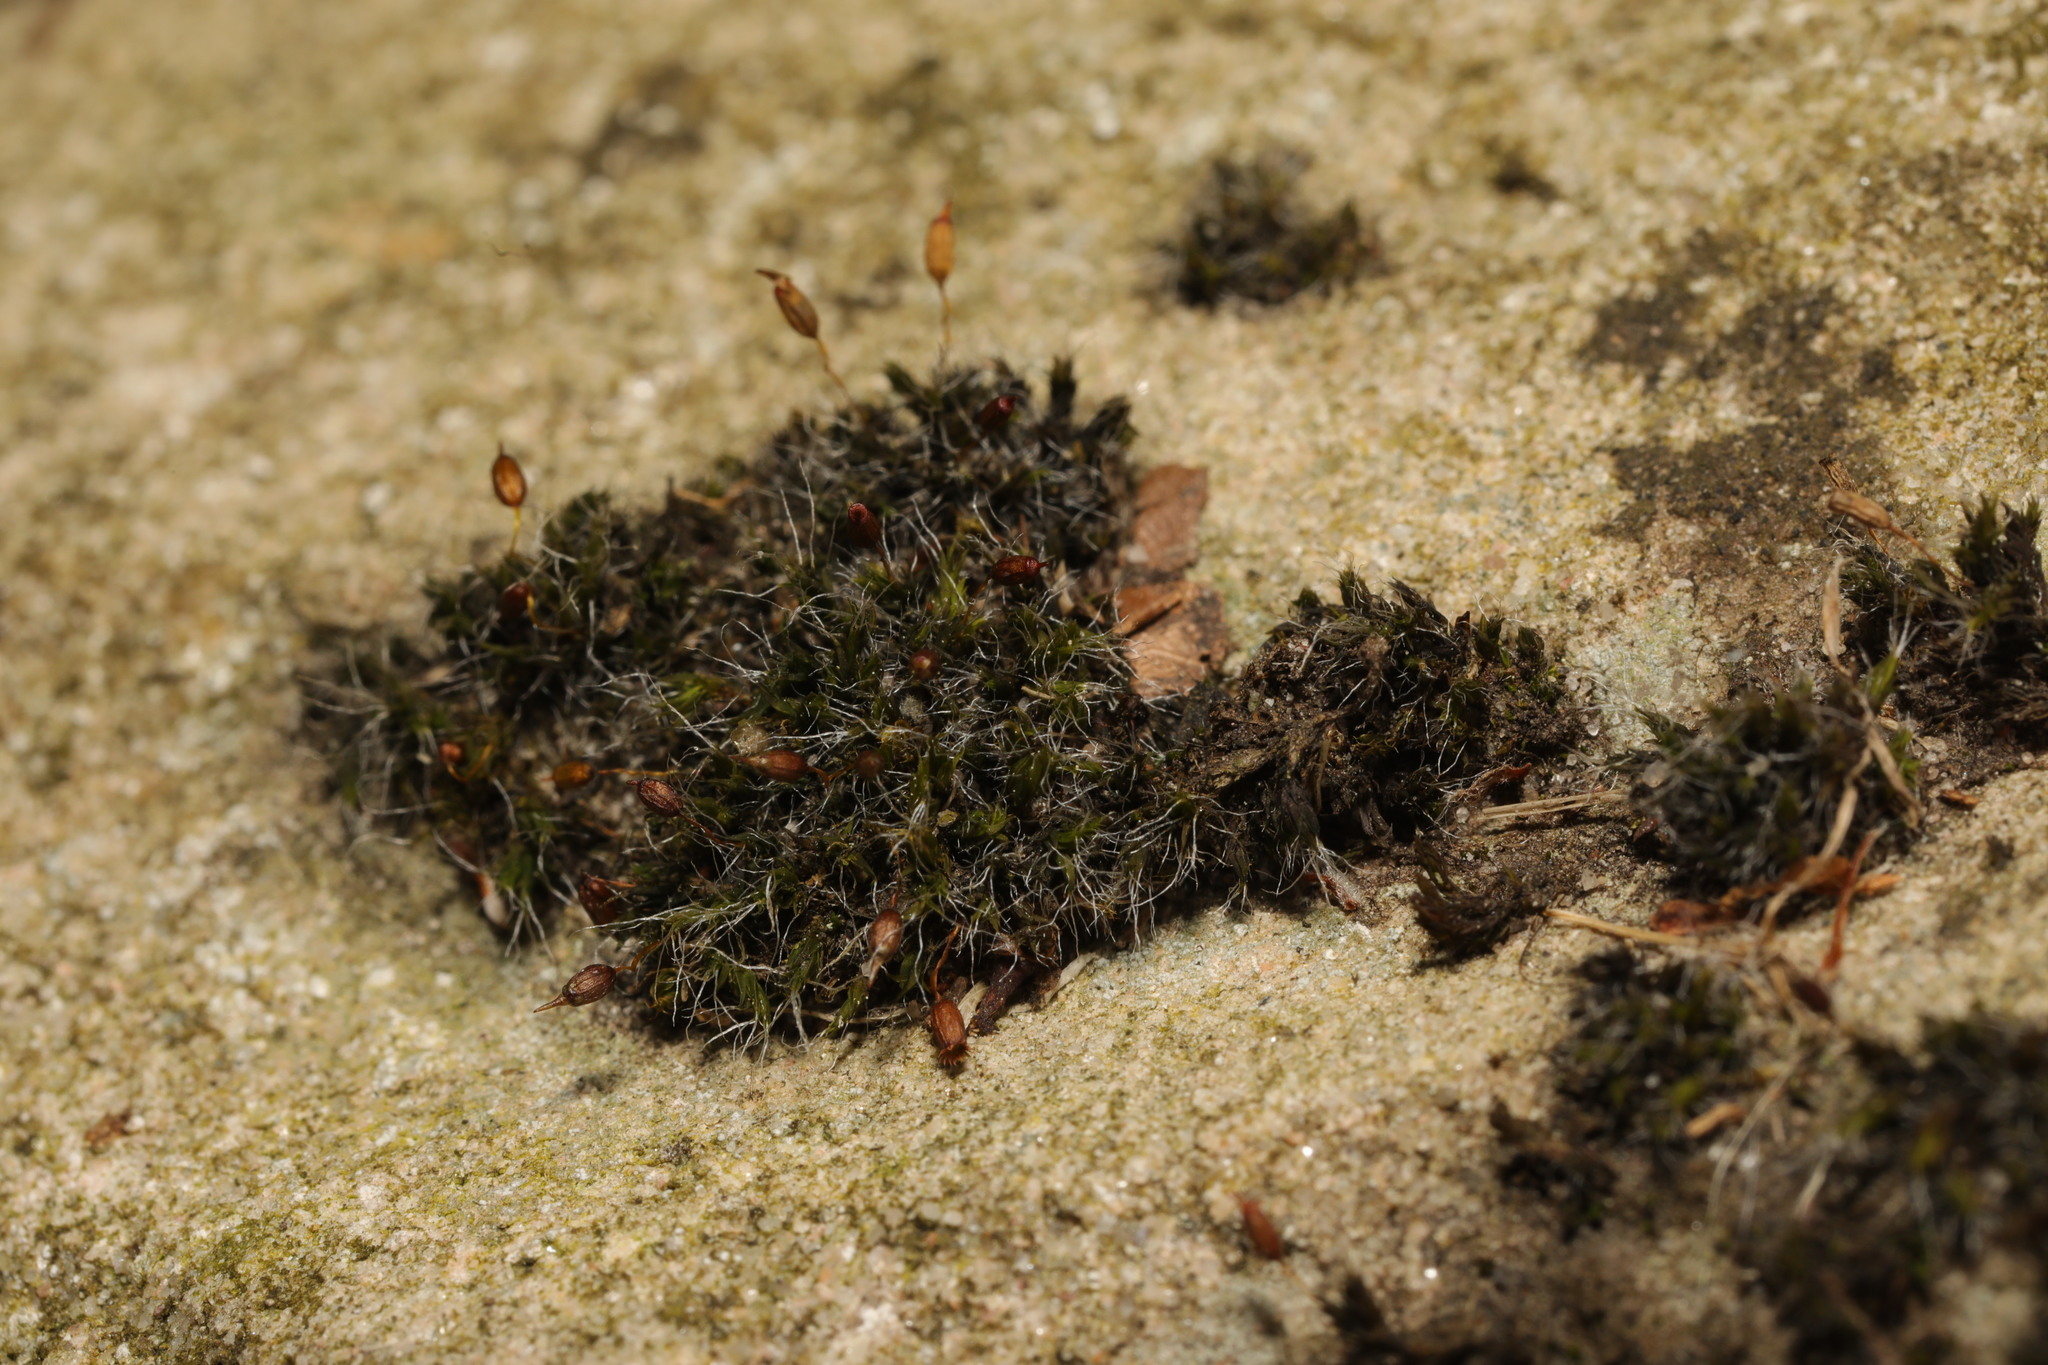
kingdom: Plantae
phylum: Bryophyta
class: Bryopsida
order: Grimmiales
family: Grimmiaceae
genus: Grimmia
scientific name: Grimmia pulvinata
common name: Grey-cushioned grimmia
